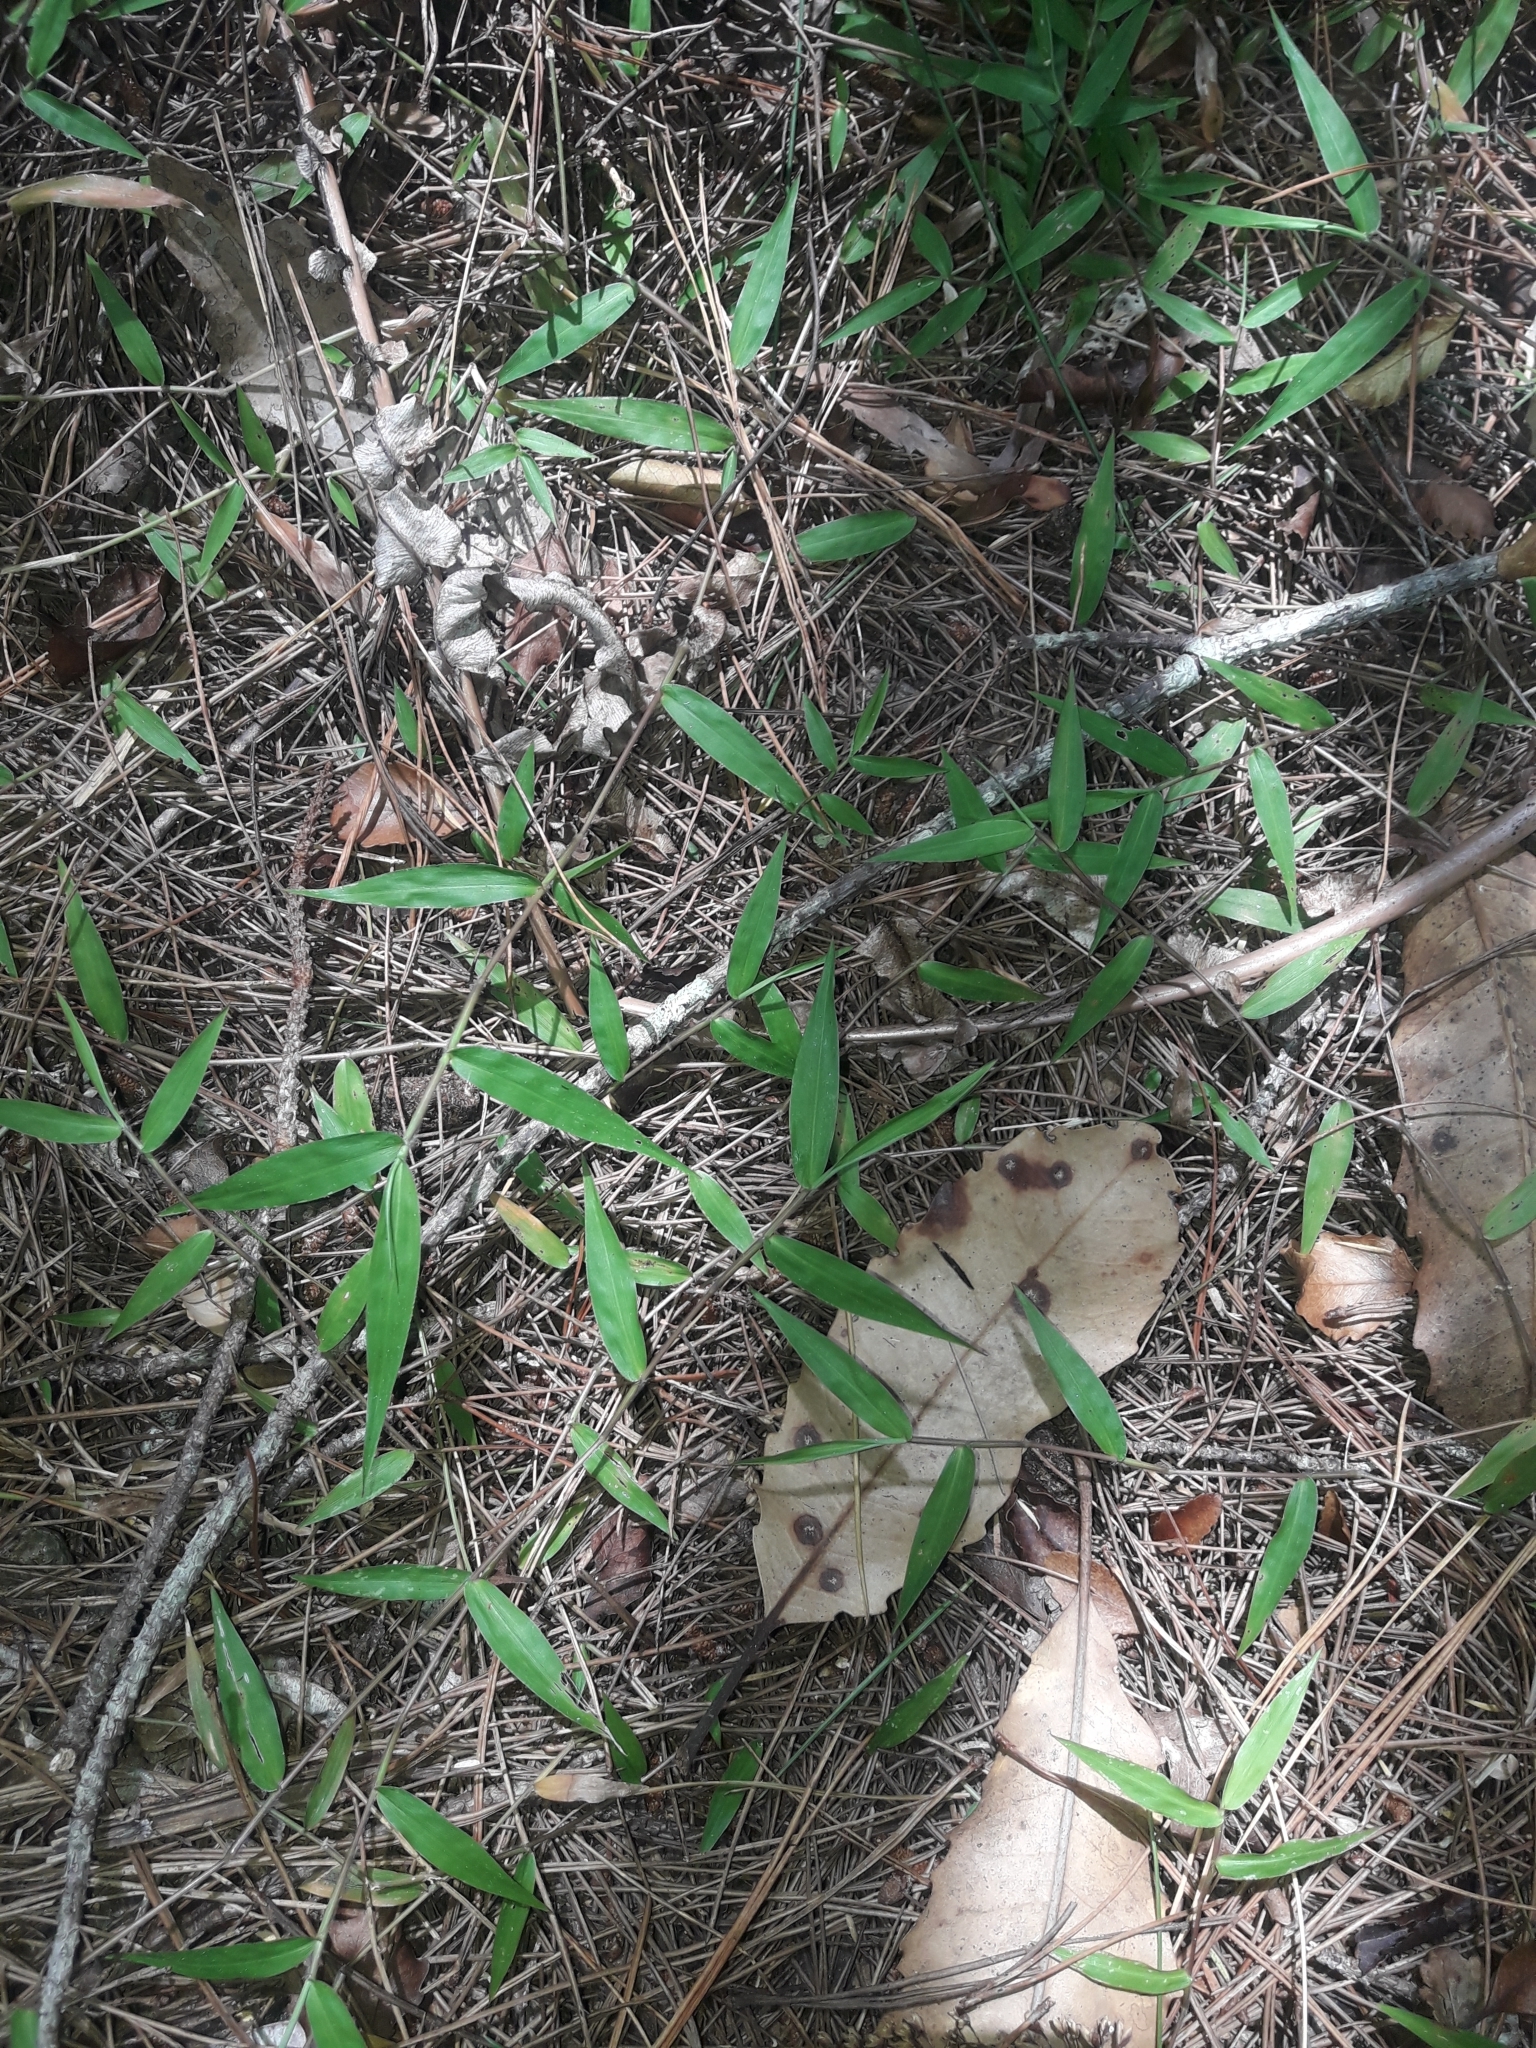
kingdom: Plantae
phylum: Tracheophyta
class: Liliopsida
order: Poales
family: Poaceae
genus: Oplismenus
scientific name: Oplismenus hirtellus
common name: Basketgrass
